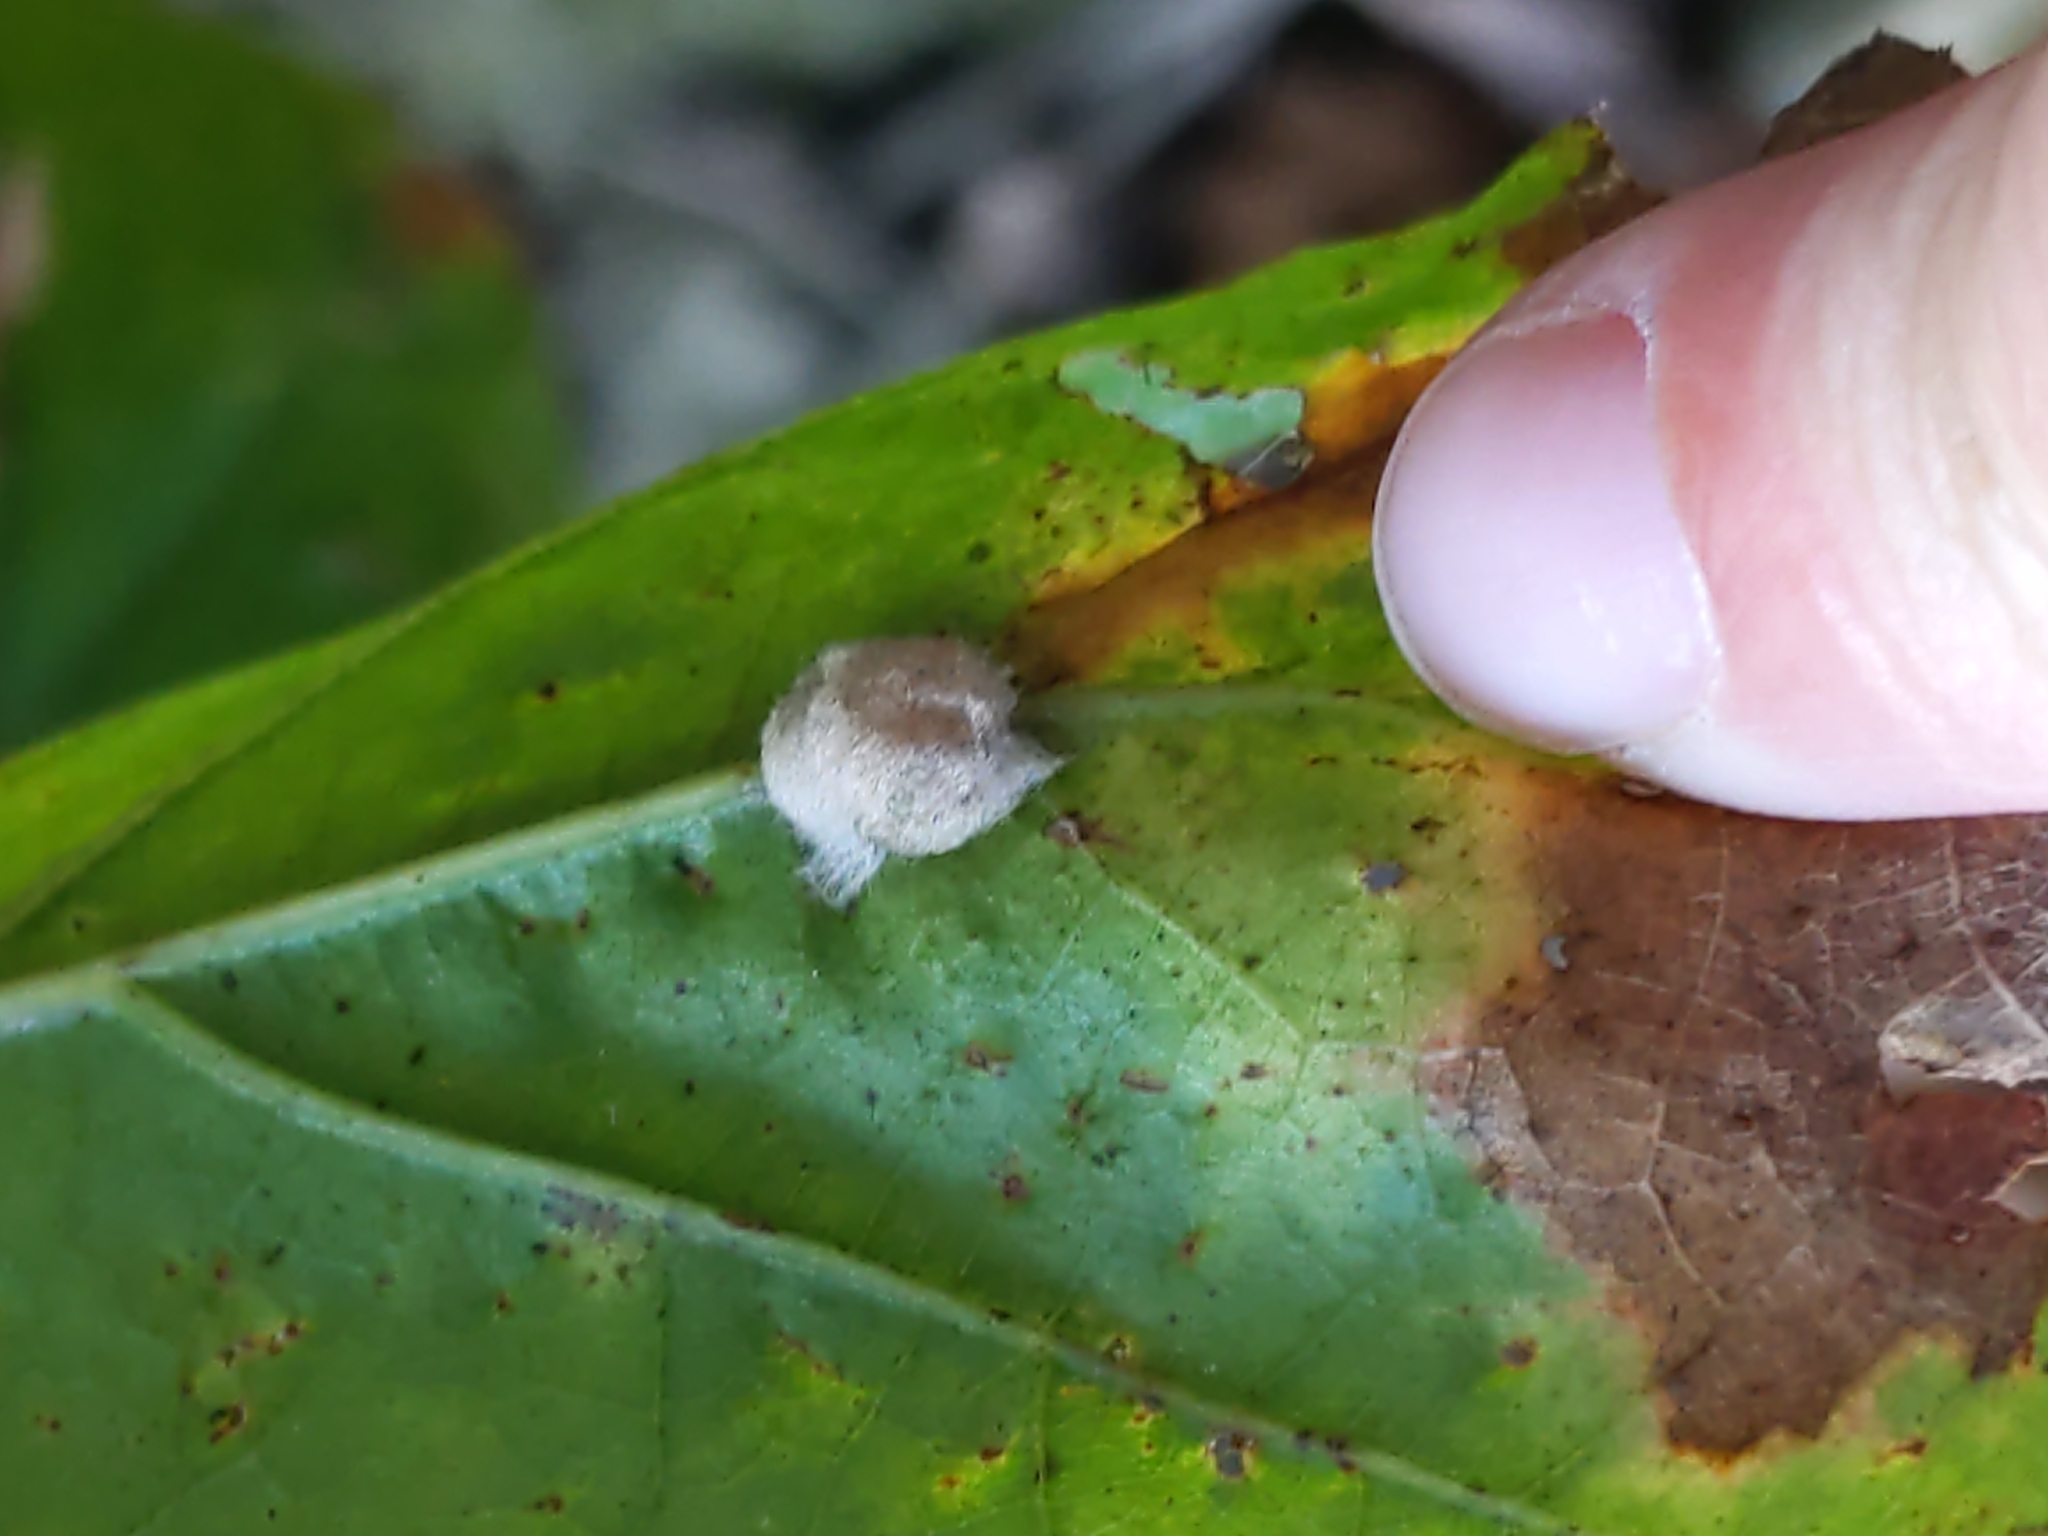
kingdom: Animalia
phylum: Arthropoda
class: Insecta
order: Hymenoptera
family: Cynipidae
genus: Callirhytis
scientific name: Callirhytis
